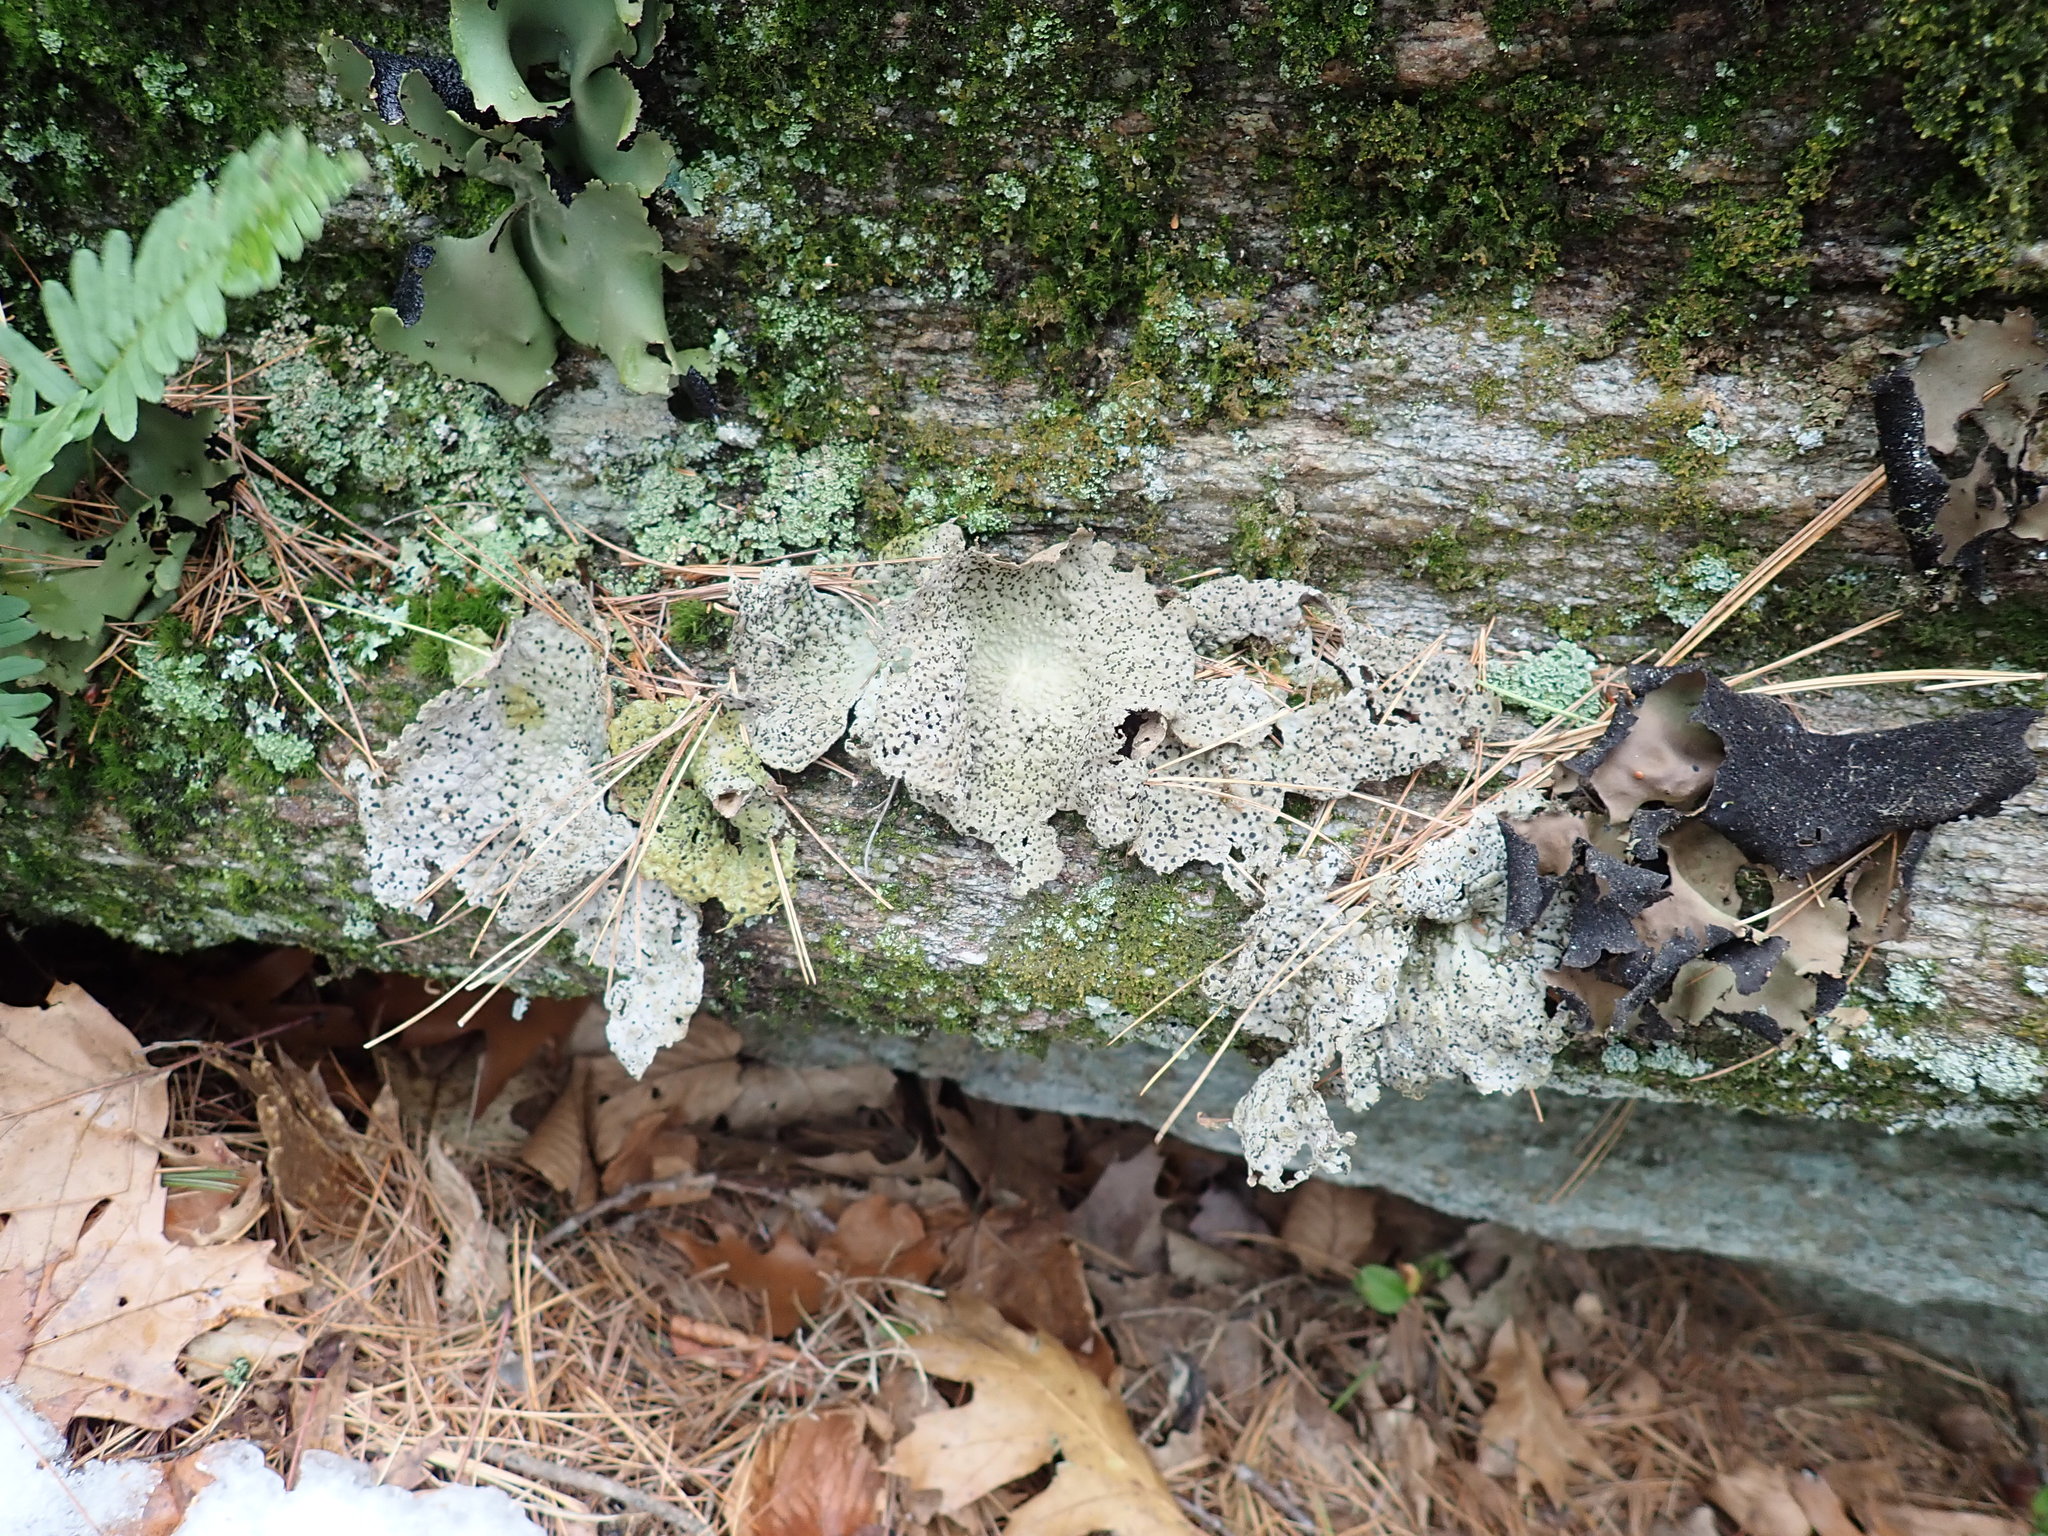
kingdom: Fungi
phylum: Ascomycota
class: Lecanoromycetes
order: Umbilicariales
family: Umbilicariaceae
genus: Lasallia
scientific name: Lasallia papulosa
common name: Common toadskin lichen
